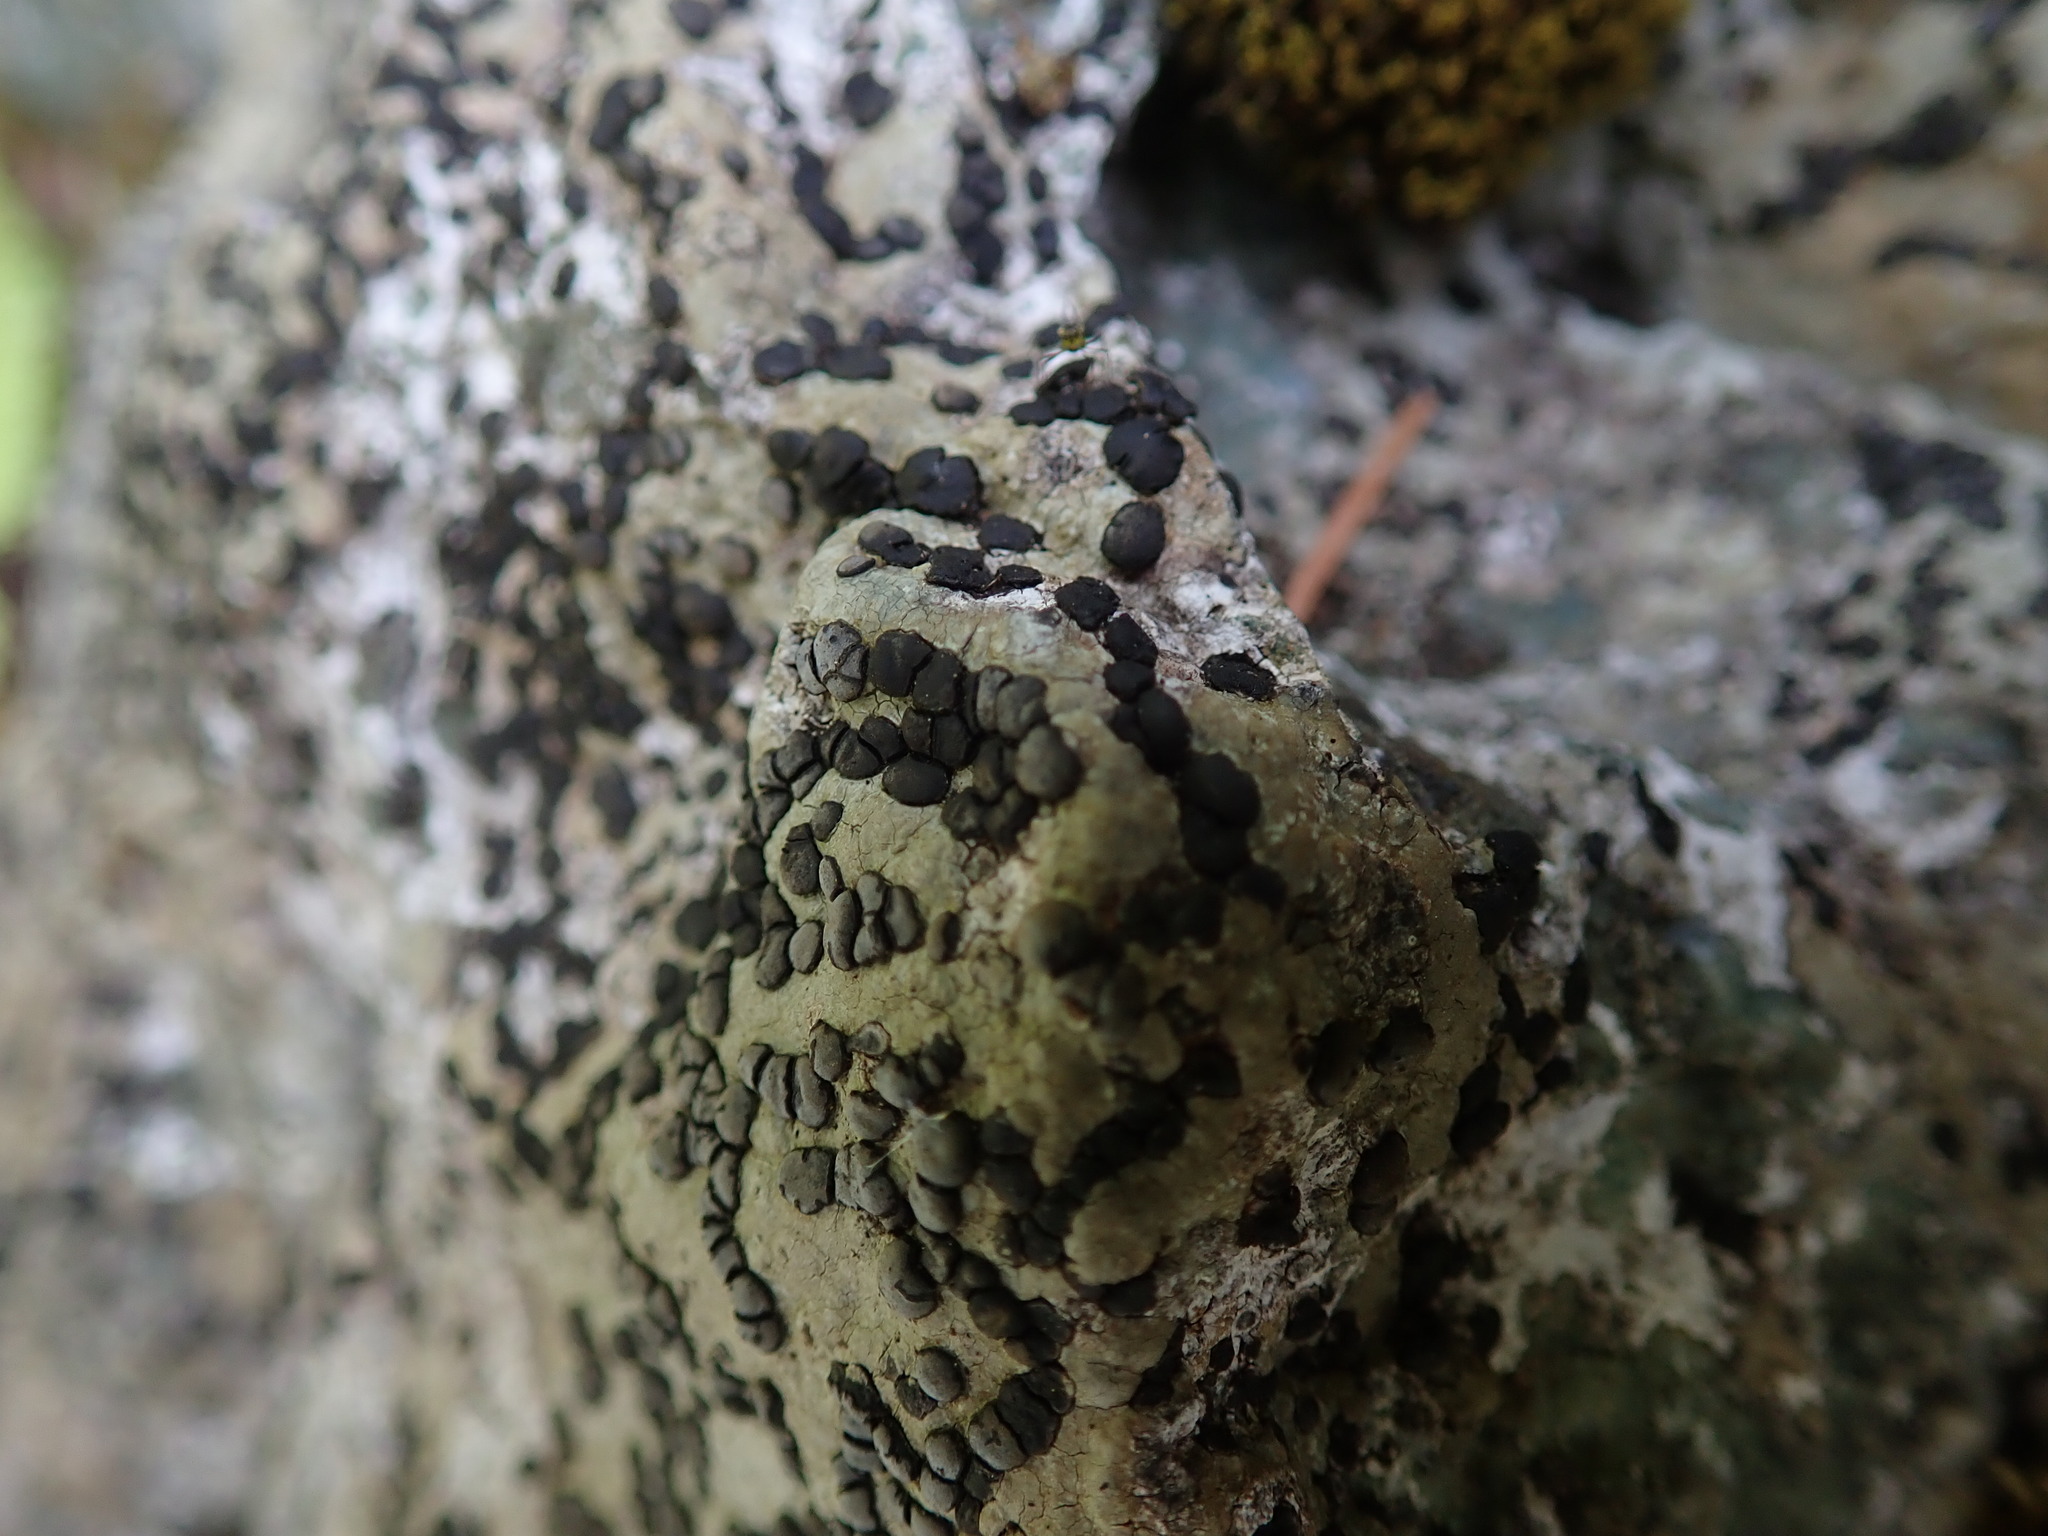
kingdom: Fungi
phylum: Ascomycota
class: Lecanoromycetes
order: Lecideales
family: Lecideaceae
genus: Porpidia
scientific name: Porpidia carlottiana
